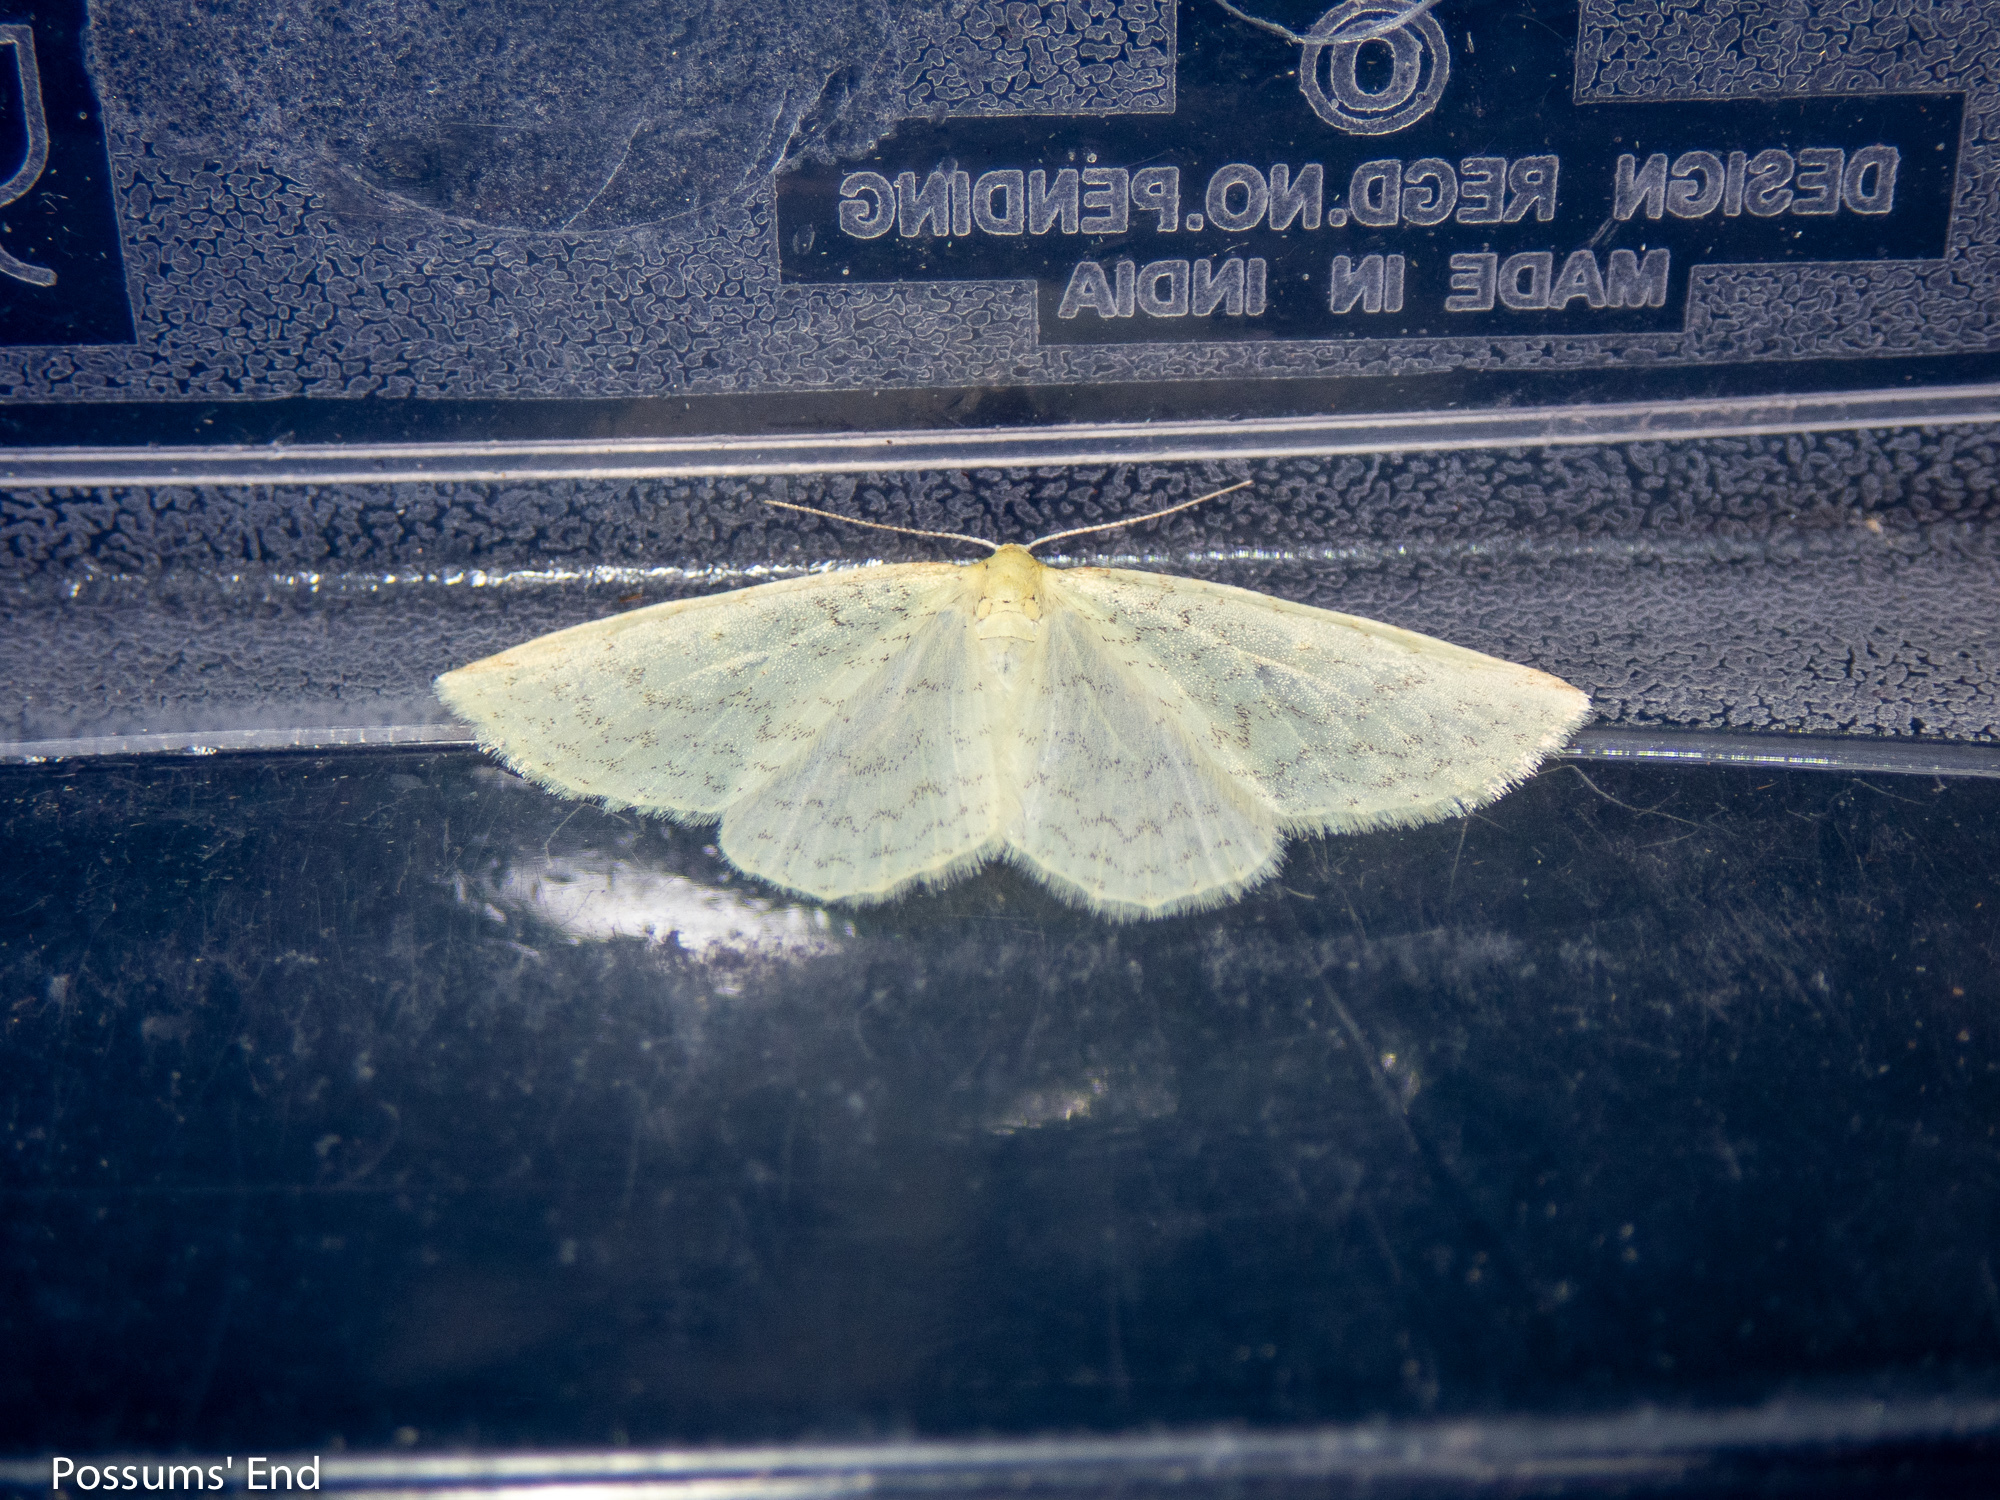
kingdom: Animalia
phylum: Arthropoda
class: Insecta
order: Lepidoptera
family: Geometridae
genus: Epiphryne
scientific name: Epiphryne undosata
